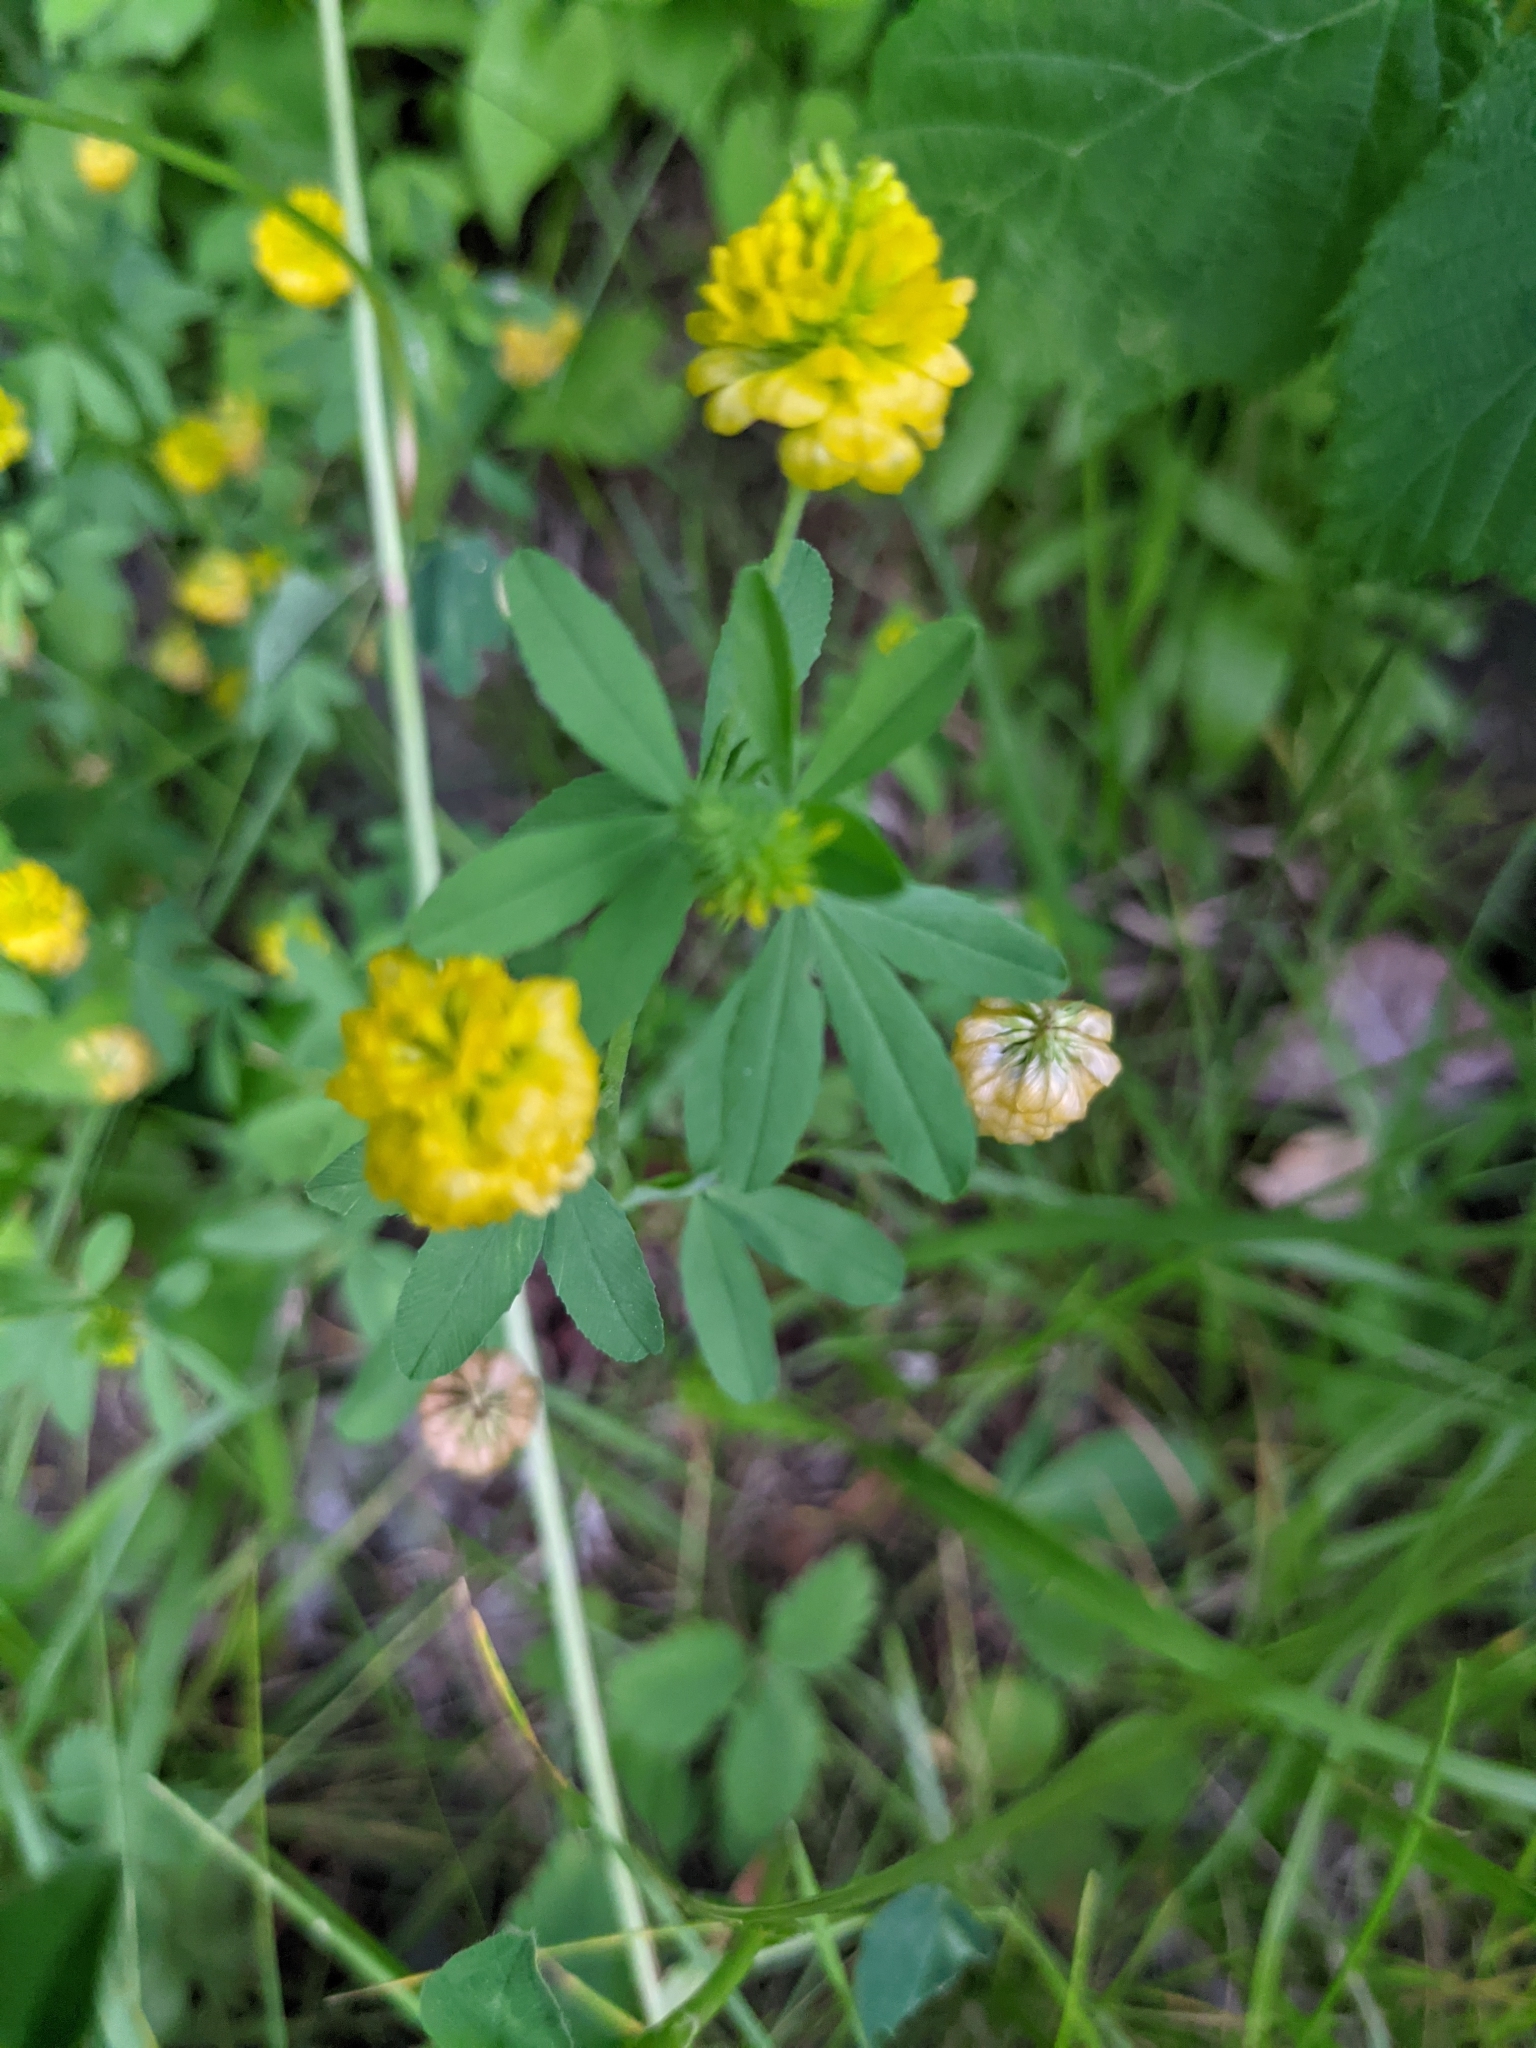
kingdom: Plantae
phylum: Tracheophyta
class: Magnoliopsida
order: Fabales
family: Fabaceae
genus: Trifolium
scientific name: Trifolium aureum
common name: Golden clover
